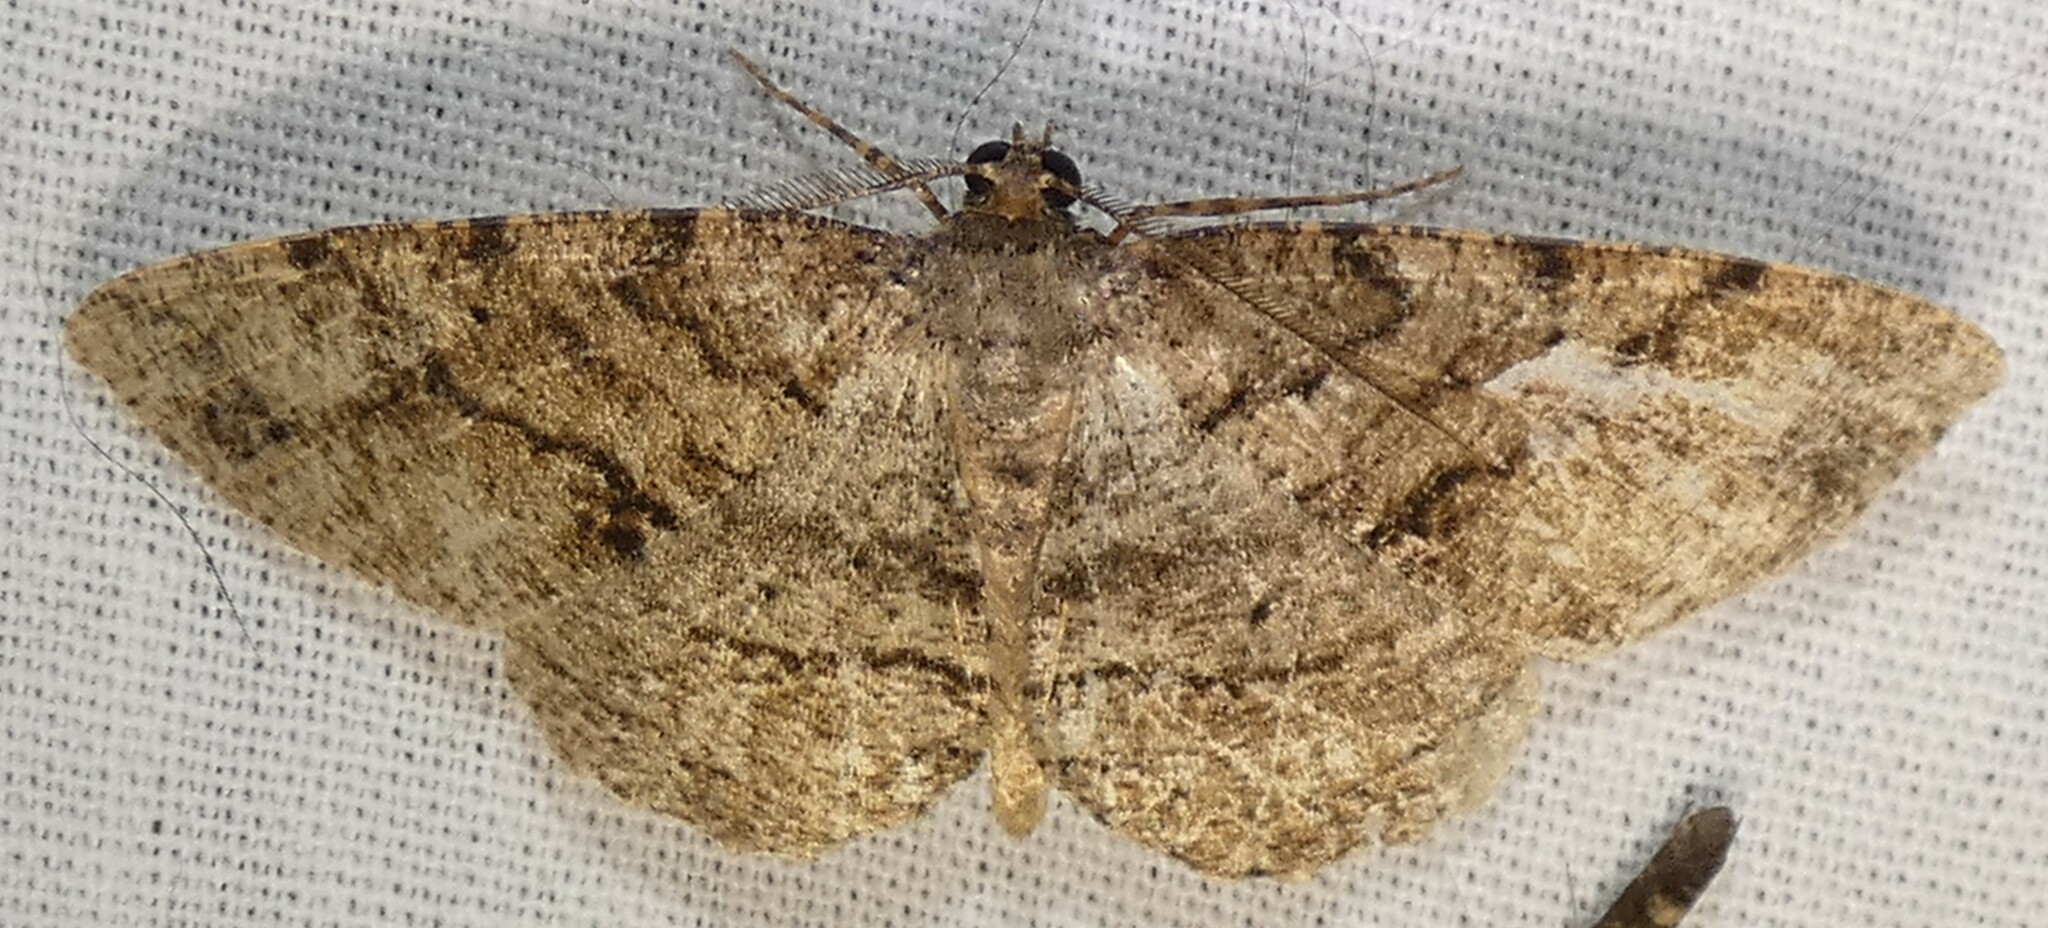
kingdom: Animalia
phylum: Arthropoda
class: Insecta
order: Lepidoptera
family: Geometridae
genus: Melanolophia
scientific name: Melanolophia canadaria
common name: Canadian melanolophia
